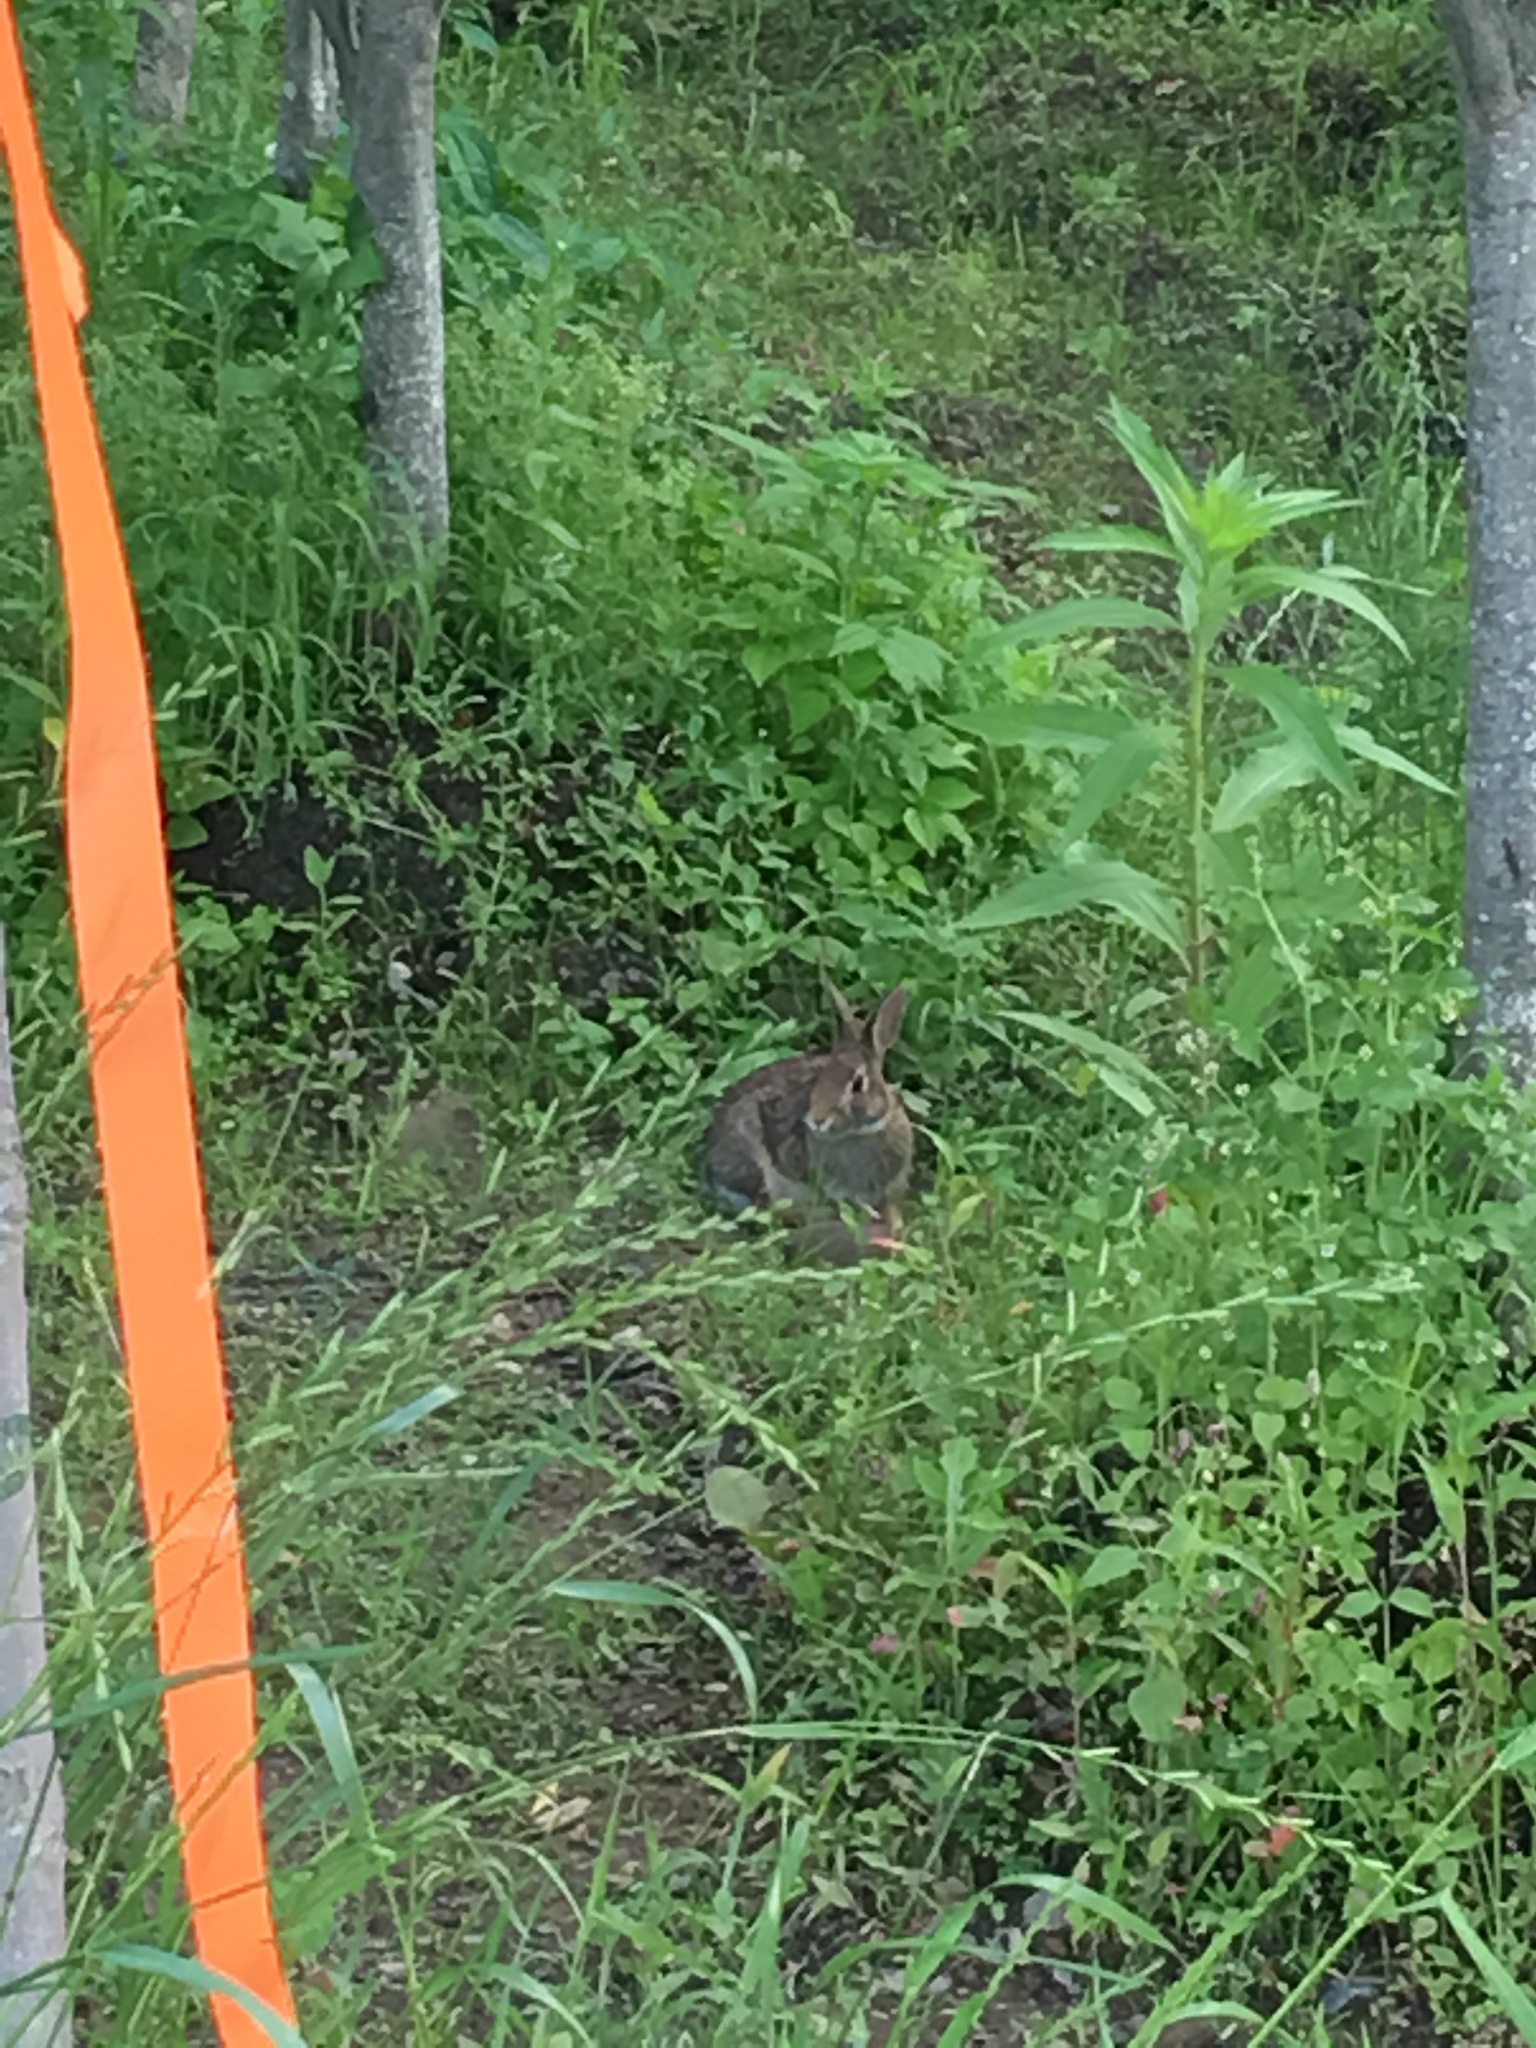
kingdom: Animalia
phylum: Chordata
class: Mammalia
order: Lagomorpha
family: Leporidae
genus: Sylvilagus
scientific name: Sylvilagus floridanus
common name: Eastern cottontail
